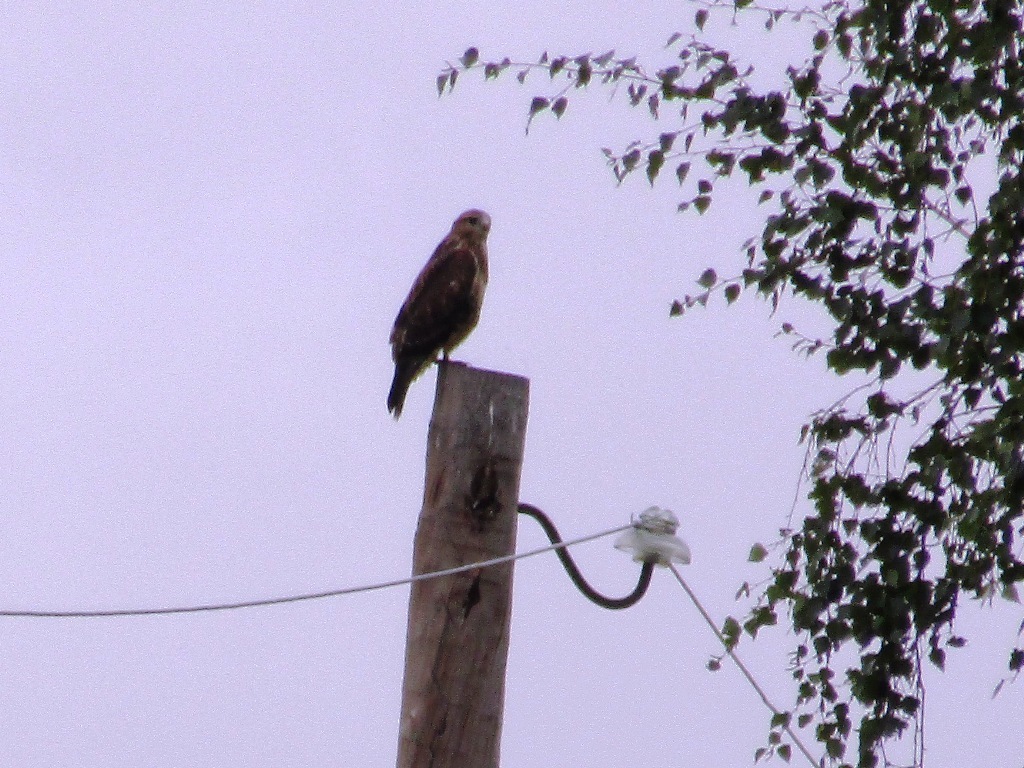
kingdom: Animalia
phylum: Chordata
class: Aves
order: Accipitriformes
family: Accipitridae
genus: Buteo
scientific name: Buteo buteo
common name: Common buzzard
